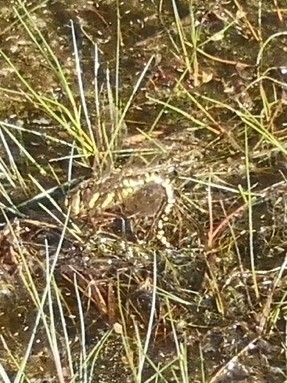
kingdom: Animalia
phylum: Arthropoda
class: Insecta
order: Odonata
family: Aeshnidae
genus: Aeshna
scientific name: Aeshna juncea
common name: Moorland hawker
